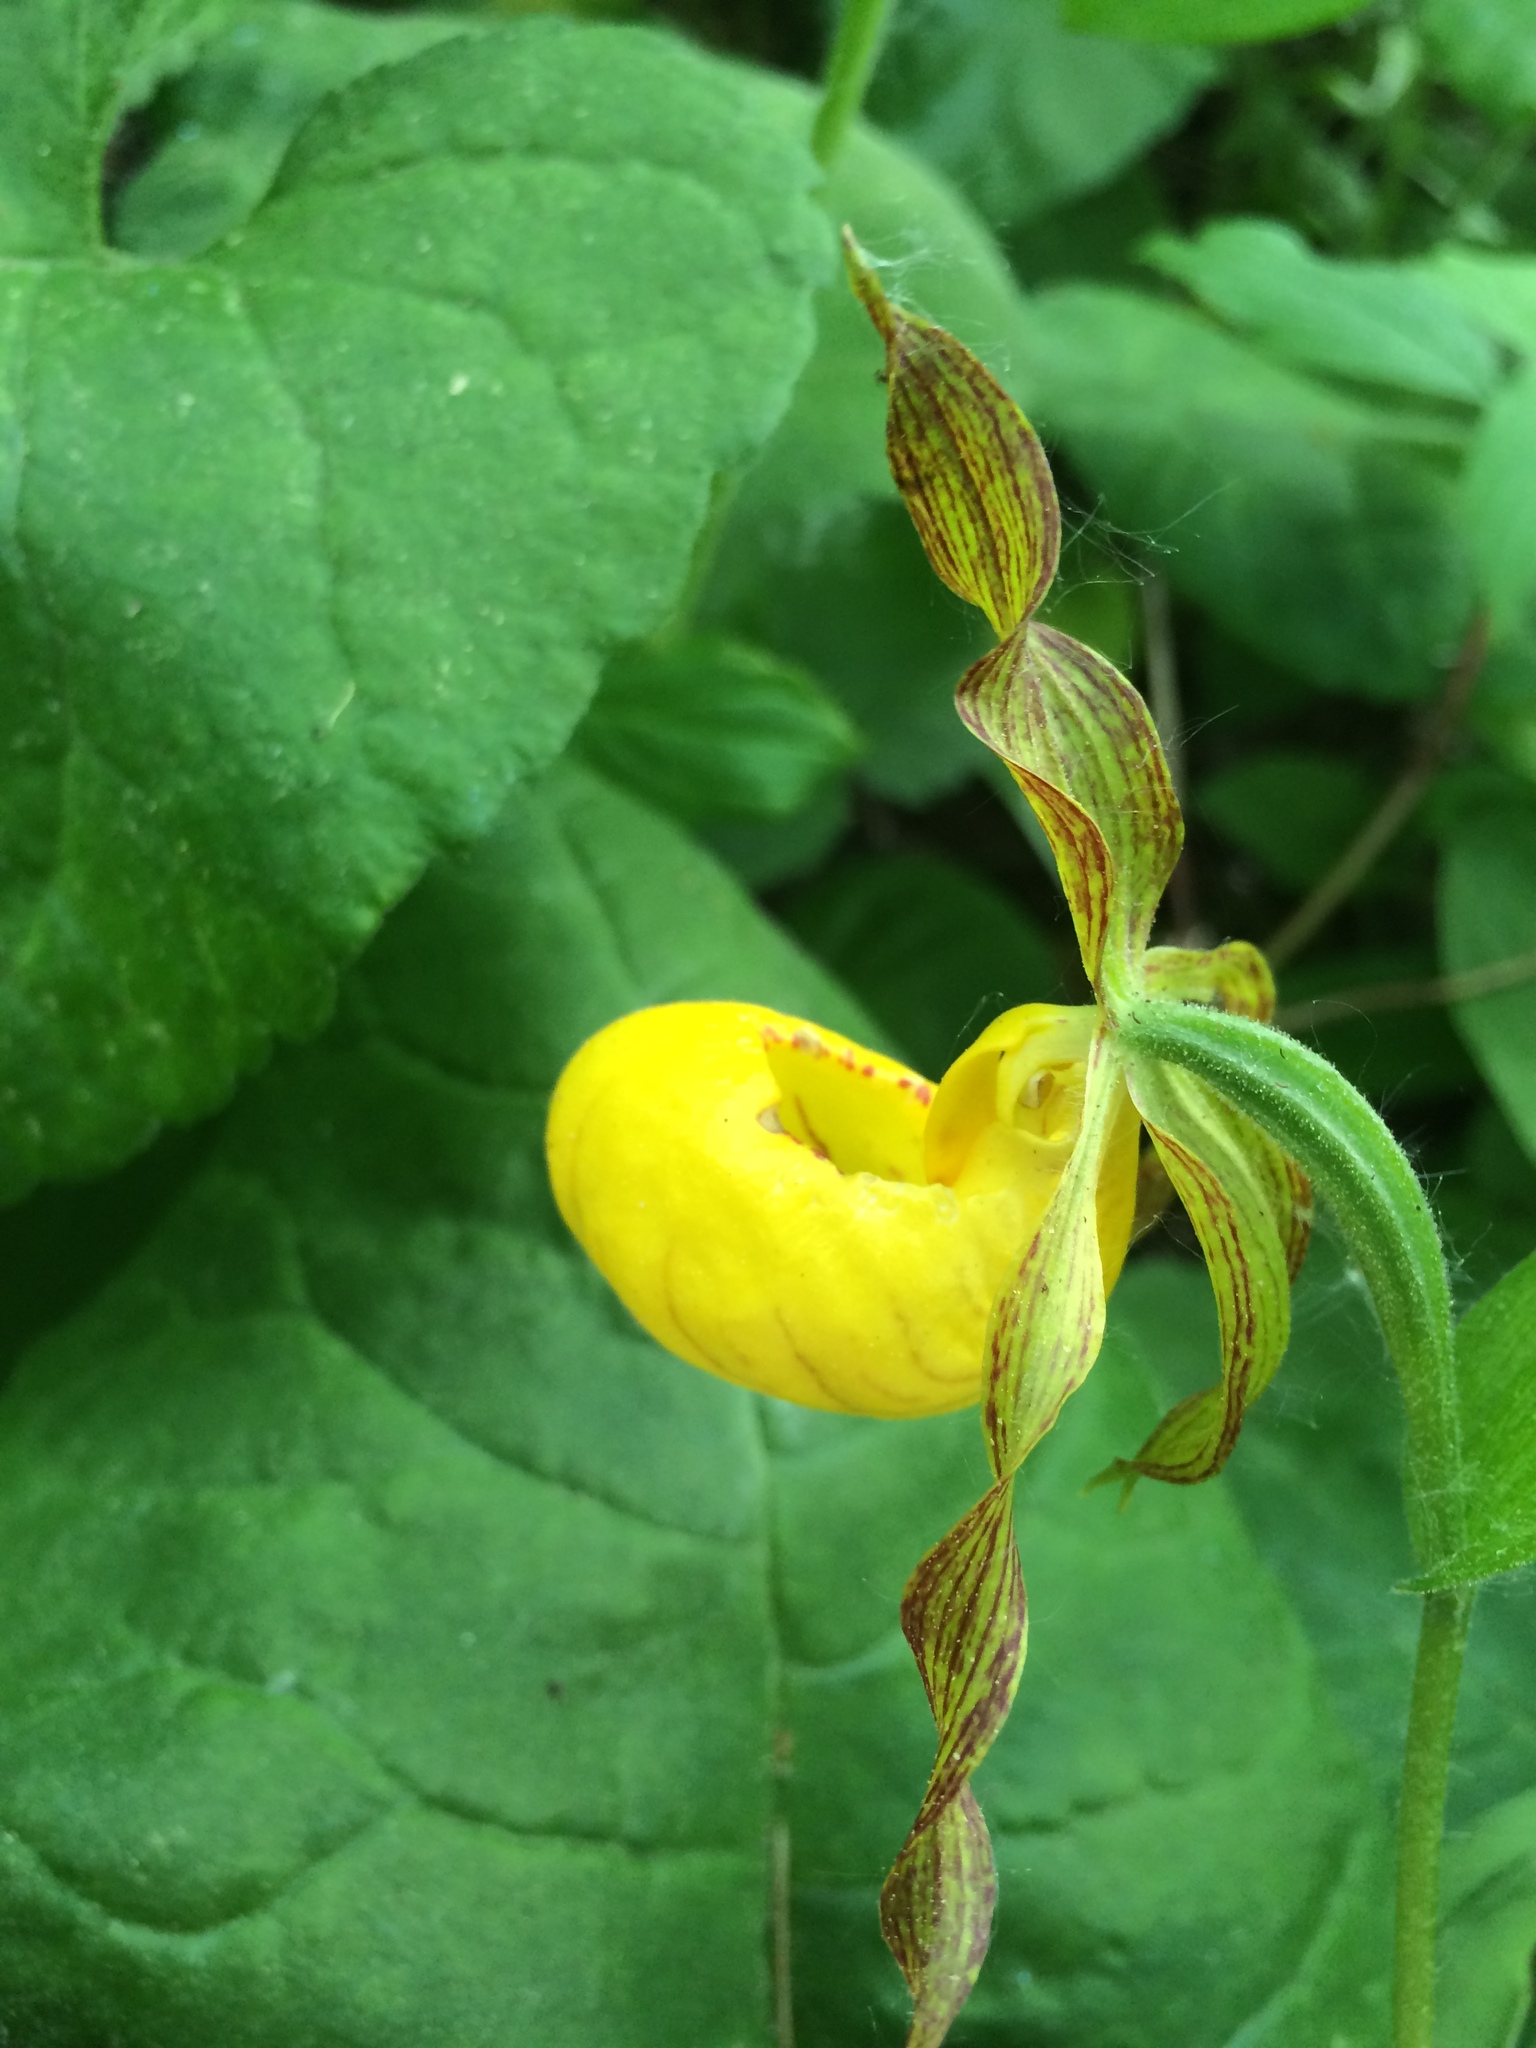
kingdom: Plantae
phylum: Tracheophyta
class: Liliopsida
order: Asparagales
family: Orchidaceae
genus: Cypripedium
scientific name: Cypripedium parviflorum
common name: American yellow lady's-slipper
